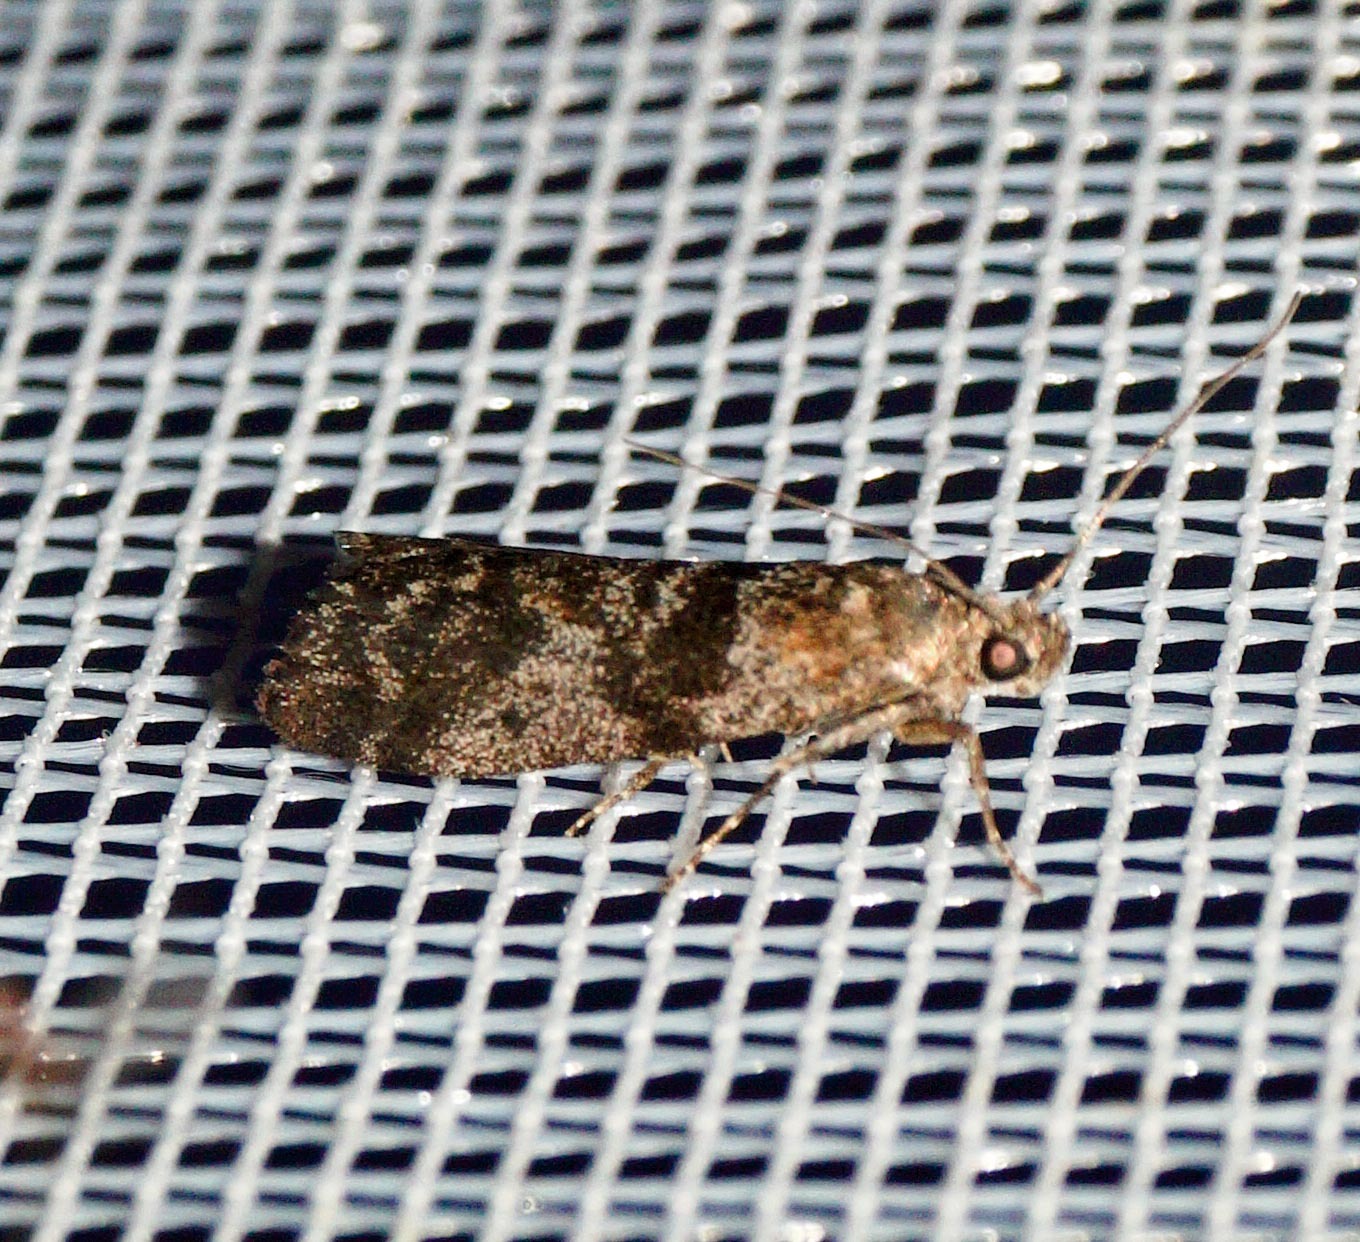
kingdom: Animalia
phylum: Arthropoda
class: Insecta
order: Lepidoptera
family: Pyralidae
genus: Sciota
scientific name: Sciota hostilis
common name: Scarce aspen knot-horn
